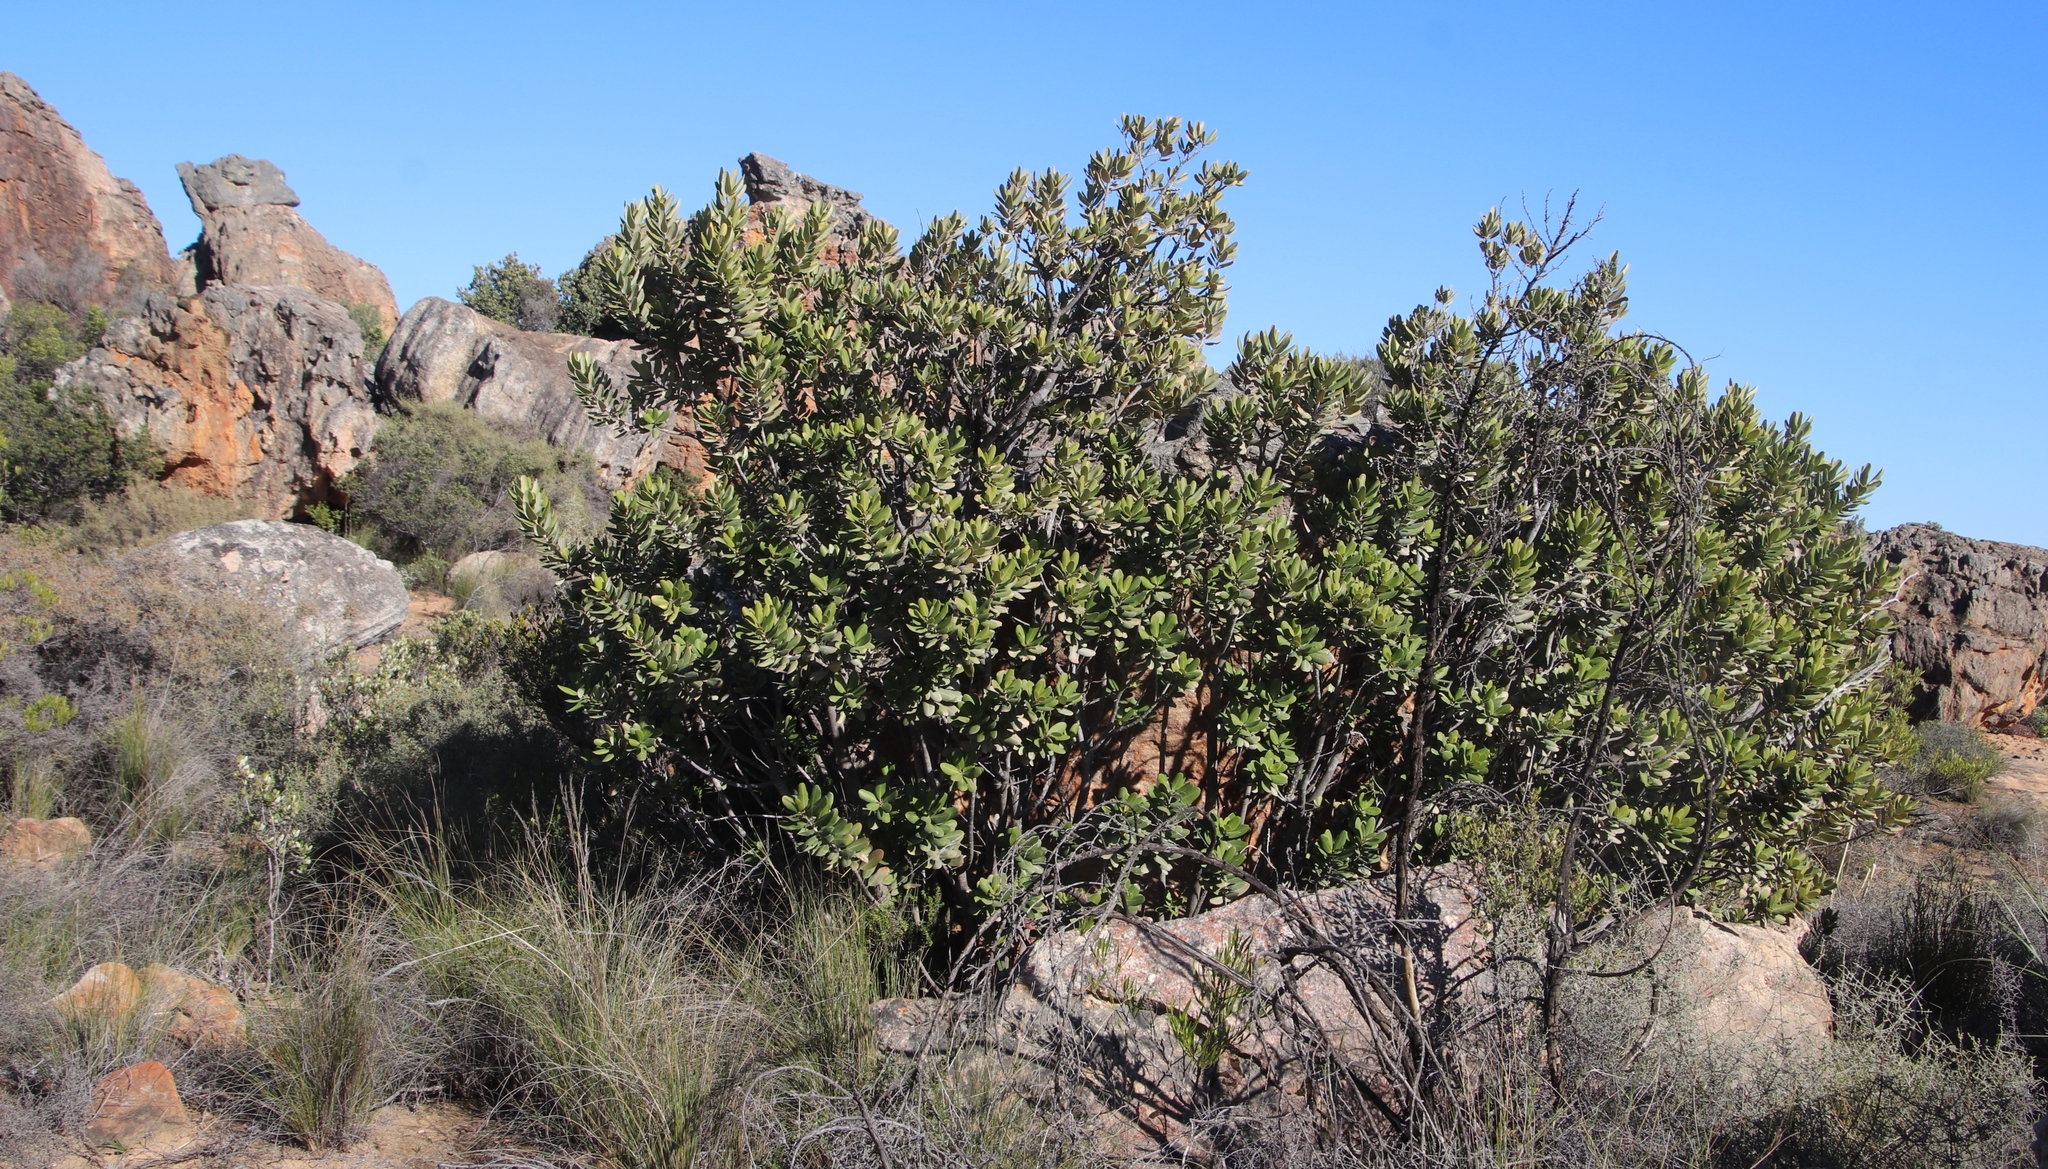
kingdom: Plantae
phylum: Tracheophyta
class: Magnoliopsida
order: Sapindales
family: Anacardiaceae
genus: Heeria
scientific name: Heeria argentea
